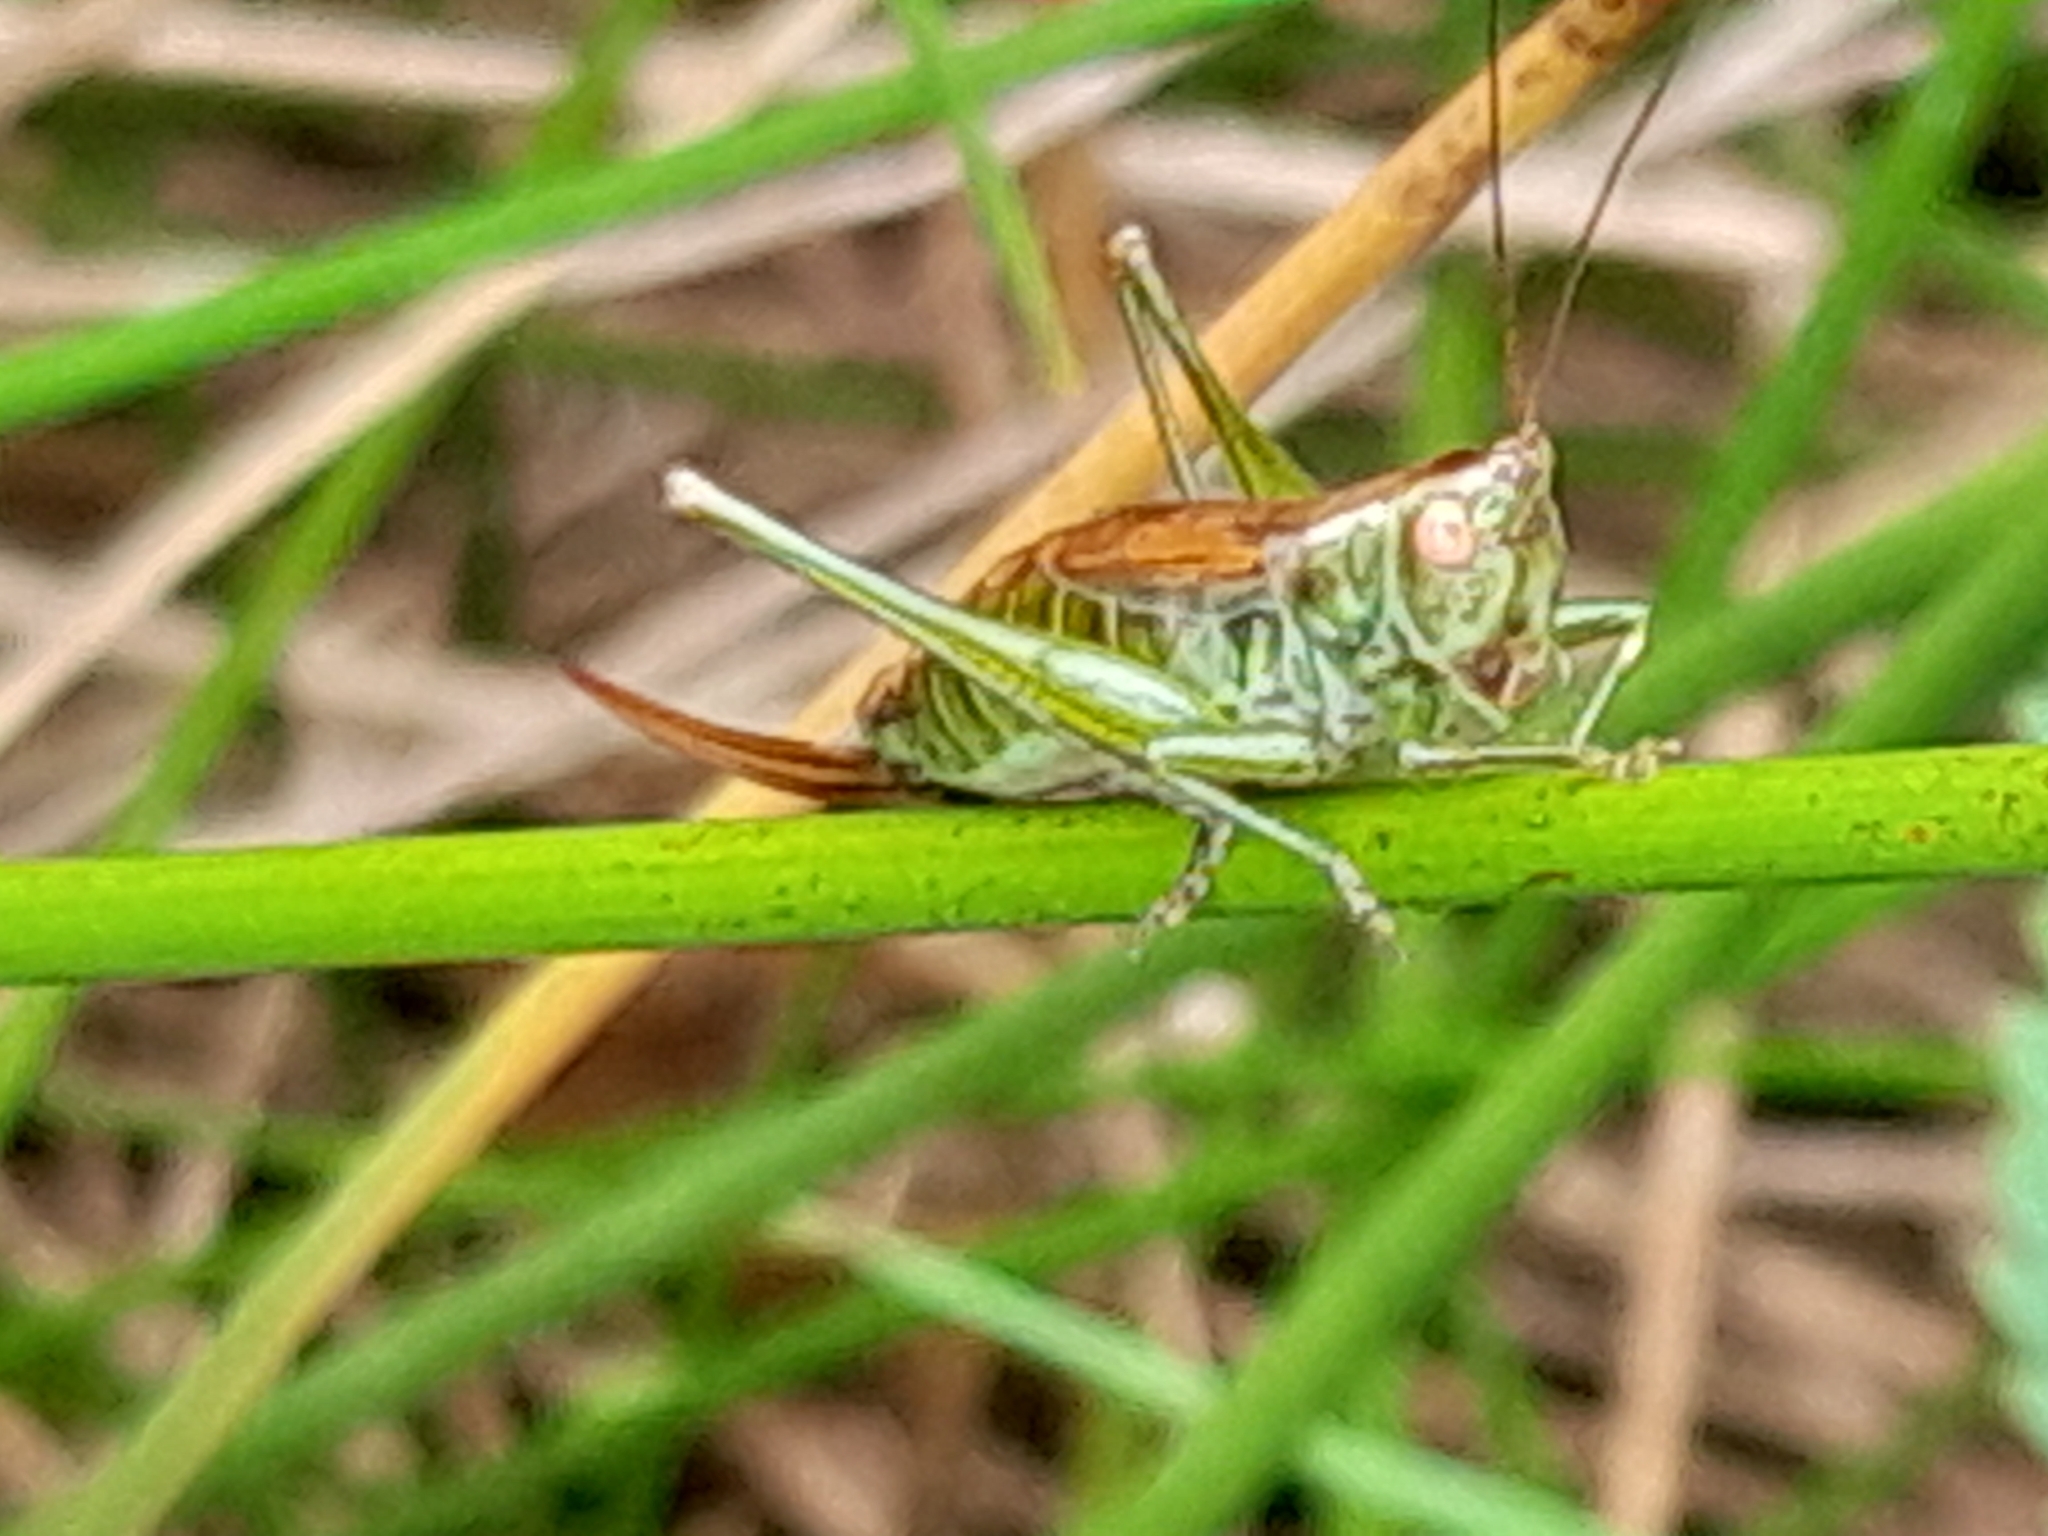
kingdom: Animalia
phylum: Arthropoda
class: Insecta
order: Orthoptera
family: Tettigoniidae
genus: Conocephalus
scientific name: Conocephalus dorsalis
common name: Short-winged conehead
